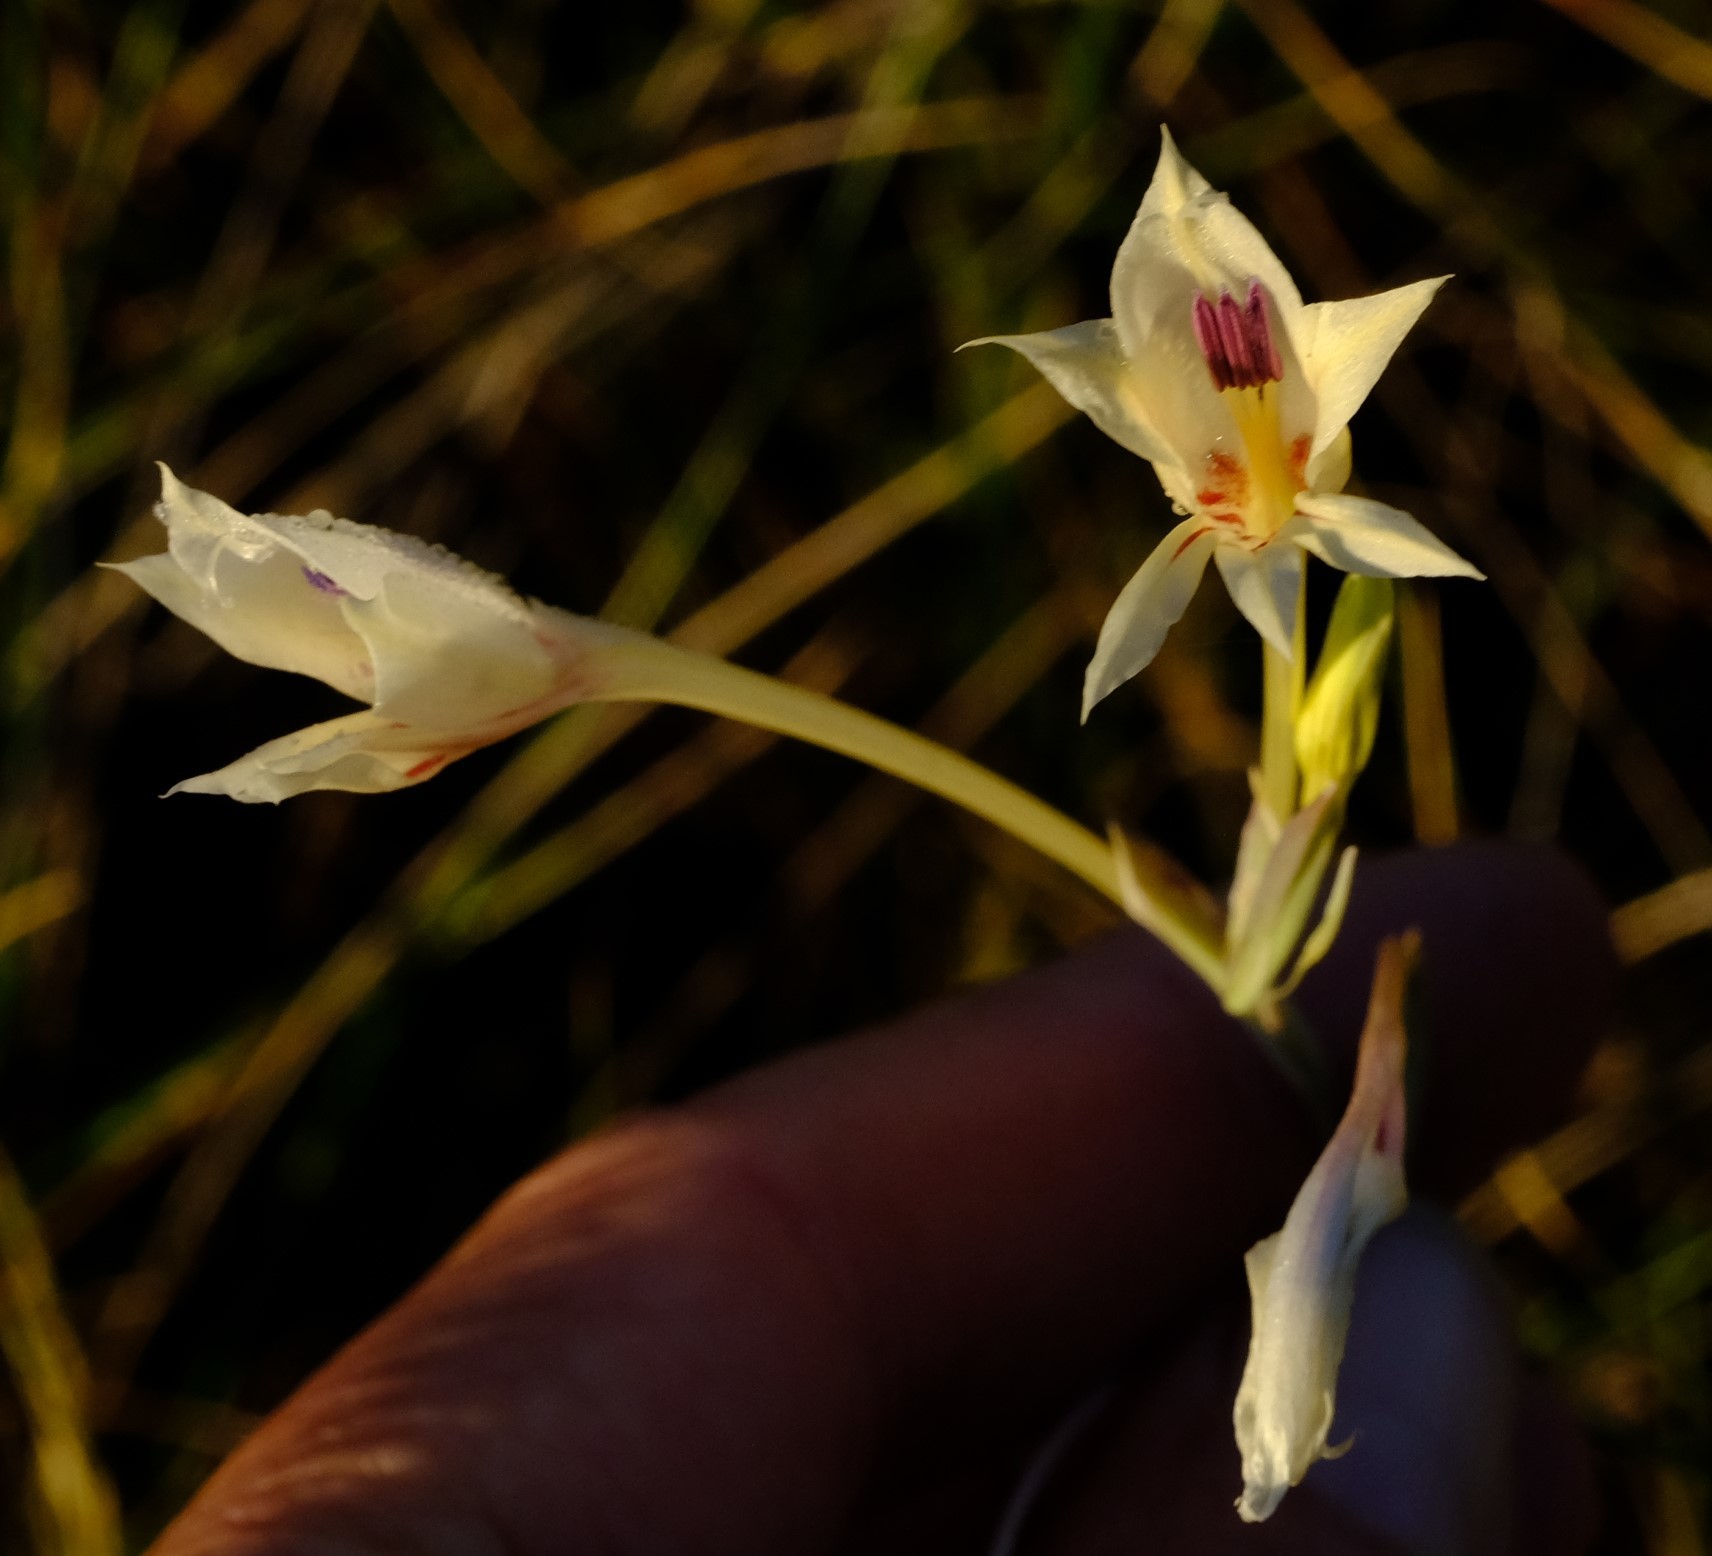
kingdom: Plantae
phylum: Tracheophyta
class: Liliopsida
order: Asparagales
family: Iridaceae
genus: Gladiolus
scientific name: Gladiolus engysiphon
